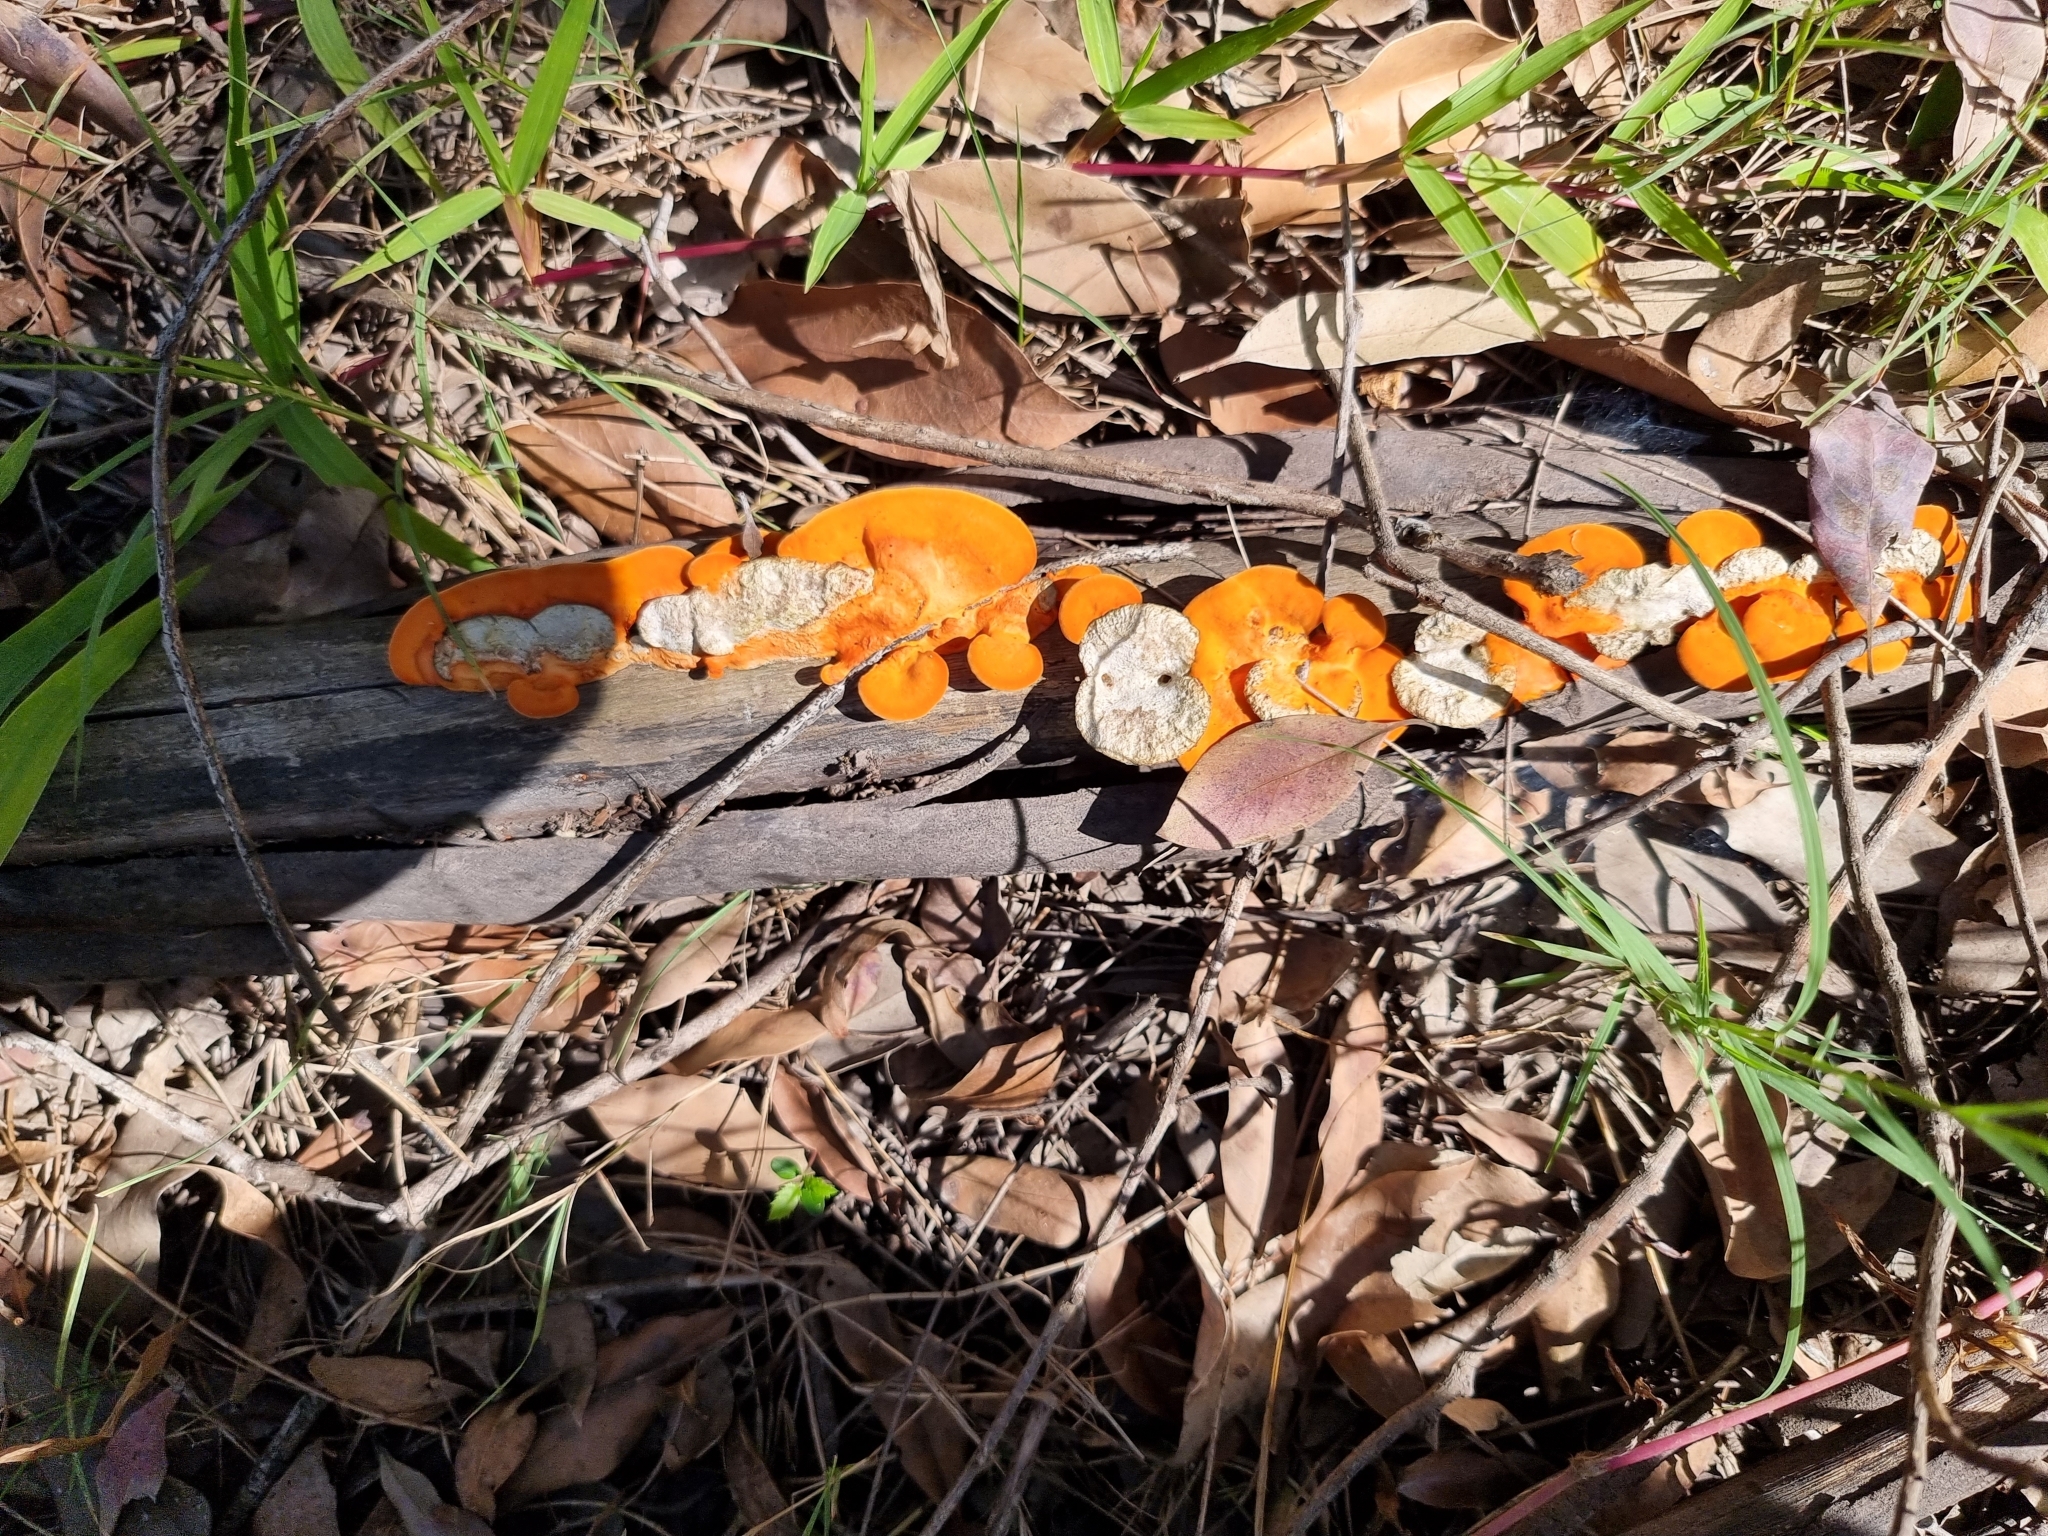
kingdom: Fungi
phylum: Basidiomycota
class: Agaricomycetes
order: Polyporales
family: Polyporaceae
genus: Trametes
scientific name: Trametes coccinea
